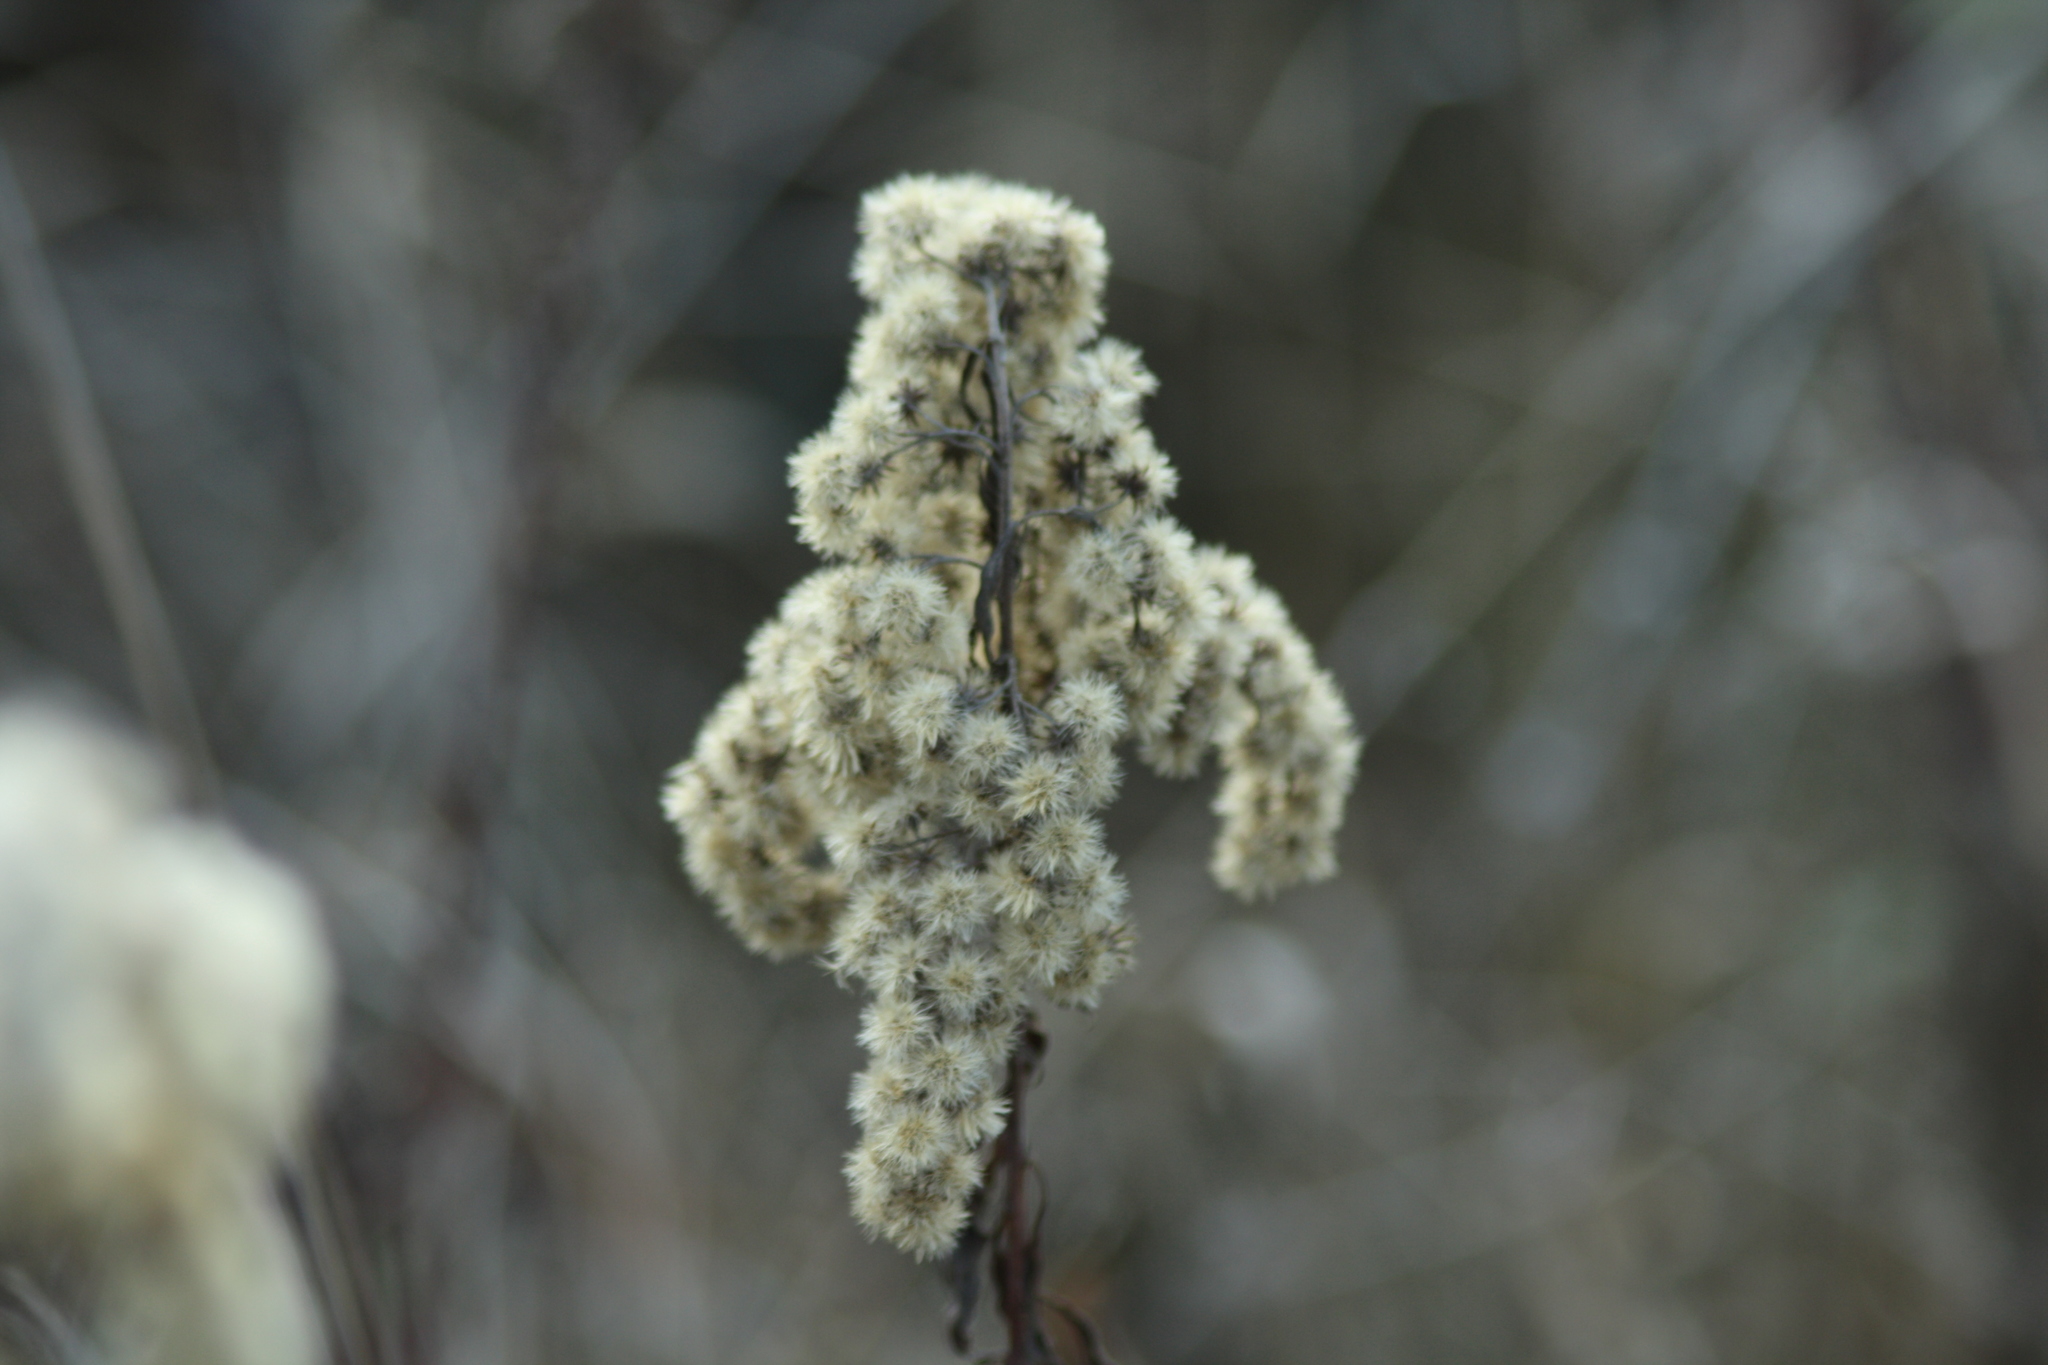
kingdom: Plantae
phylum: Tracheophyta
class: Magnoliopsida
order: Asterales
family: Asteraceae
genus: Solidago
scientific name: Solidago gigantea
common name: Giant goldenrod
